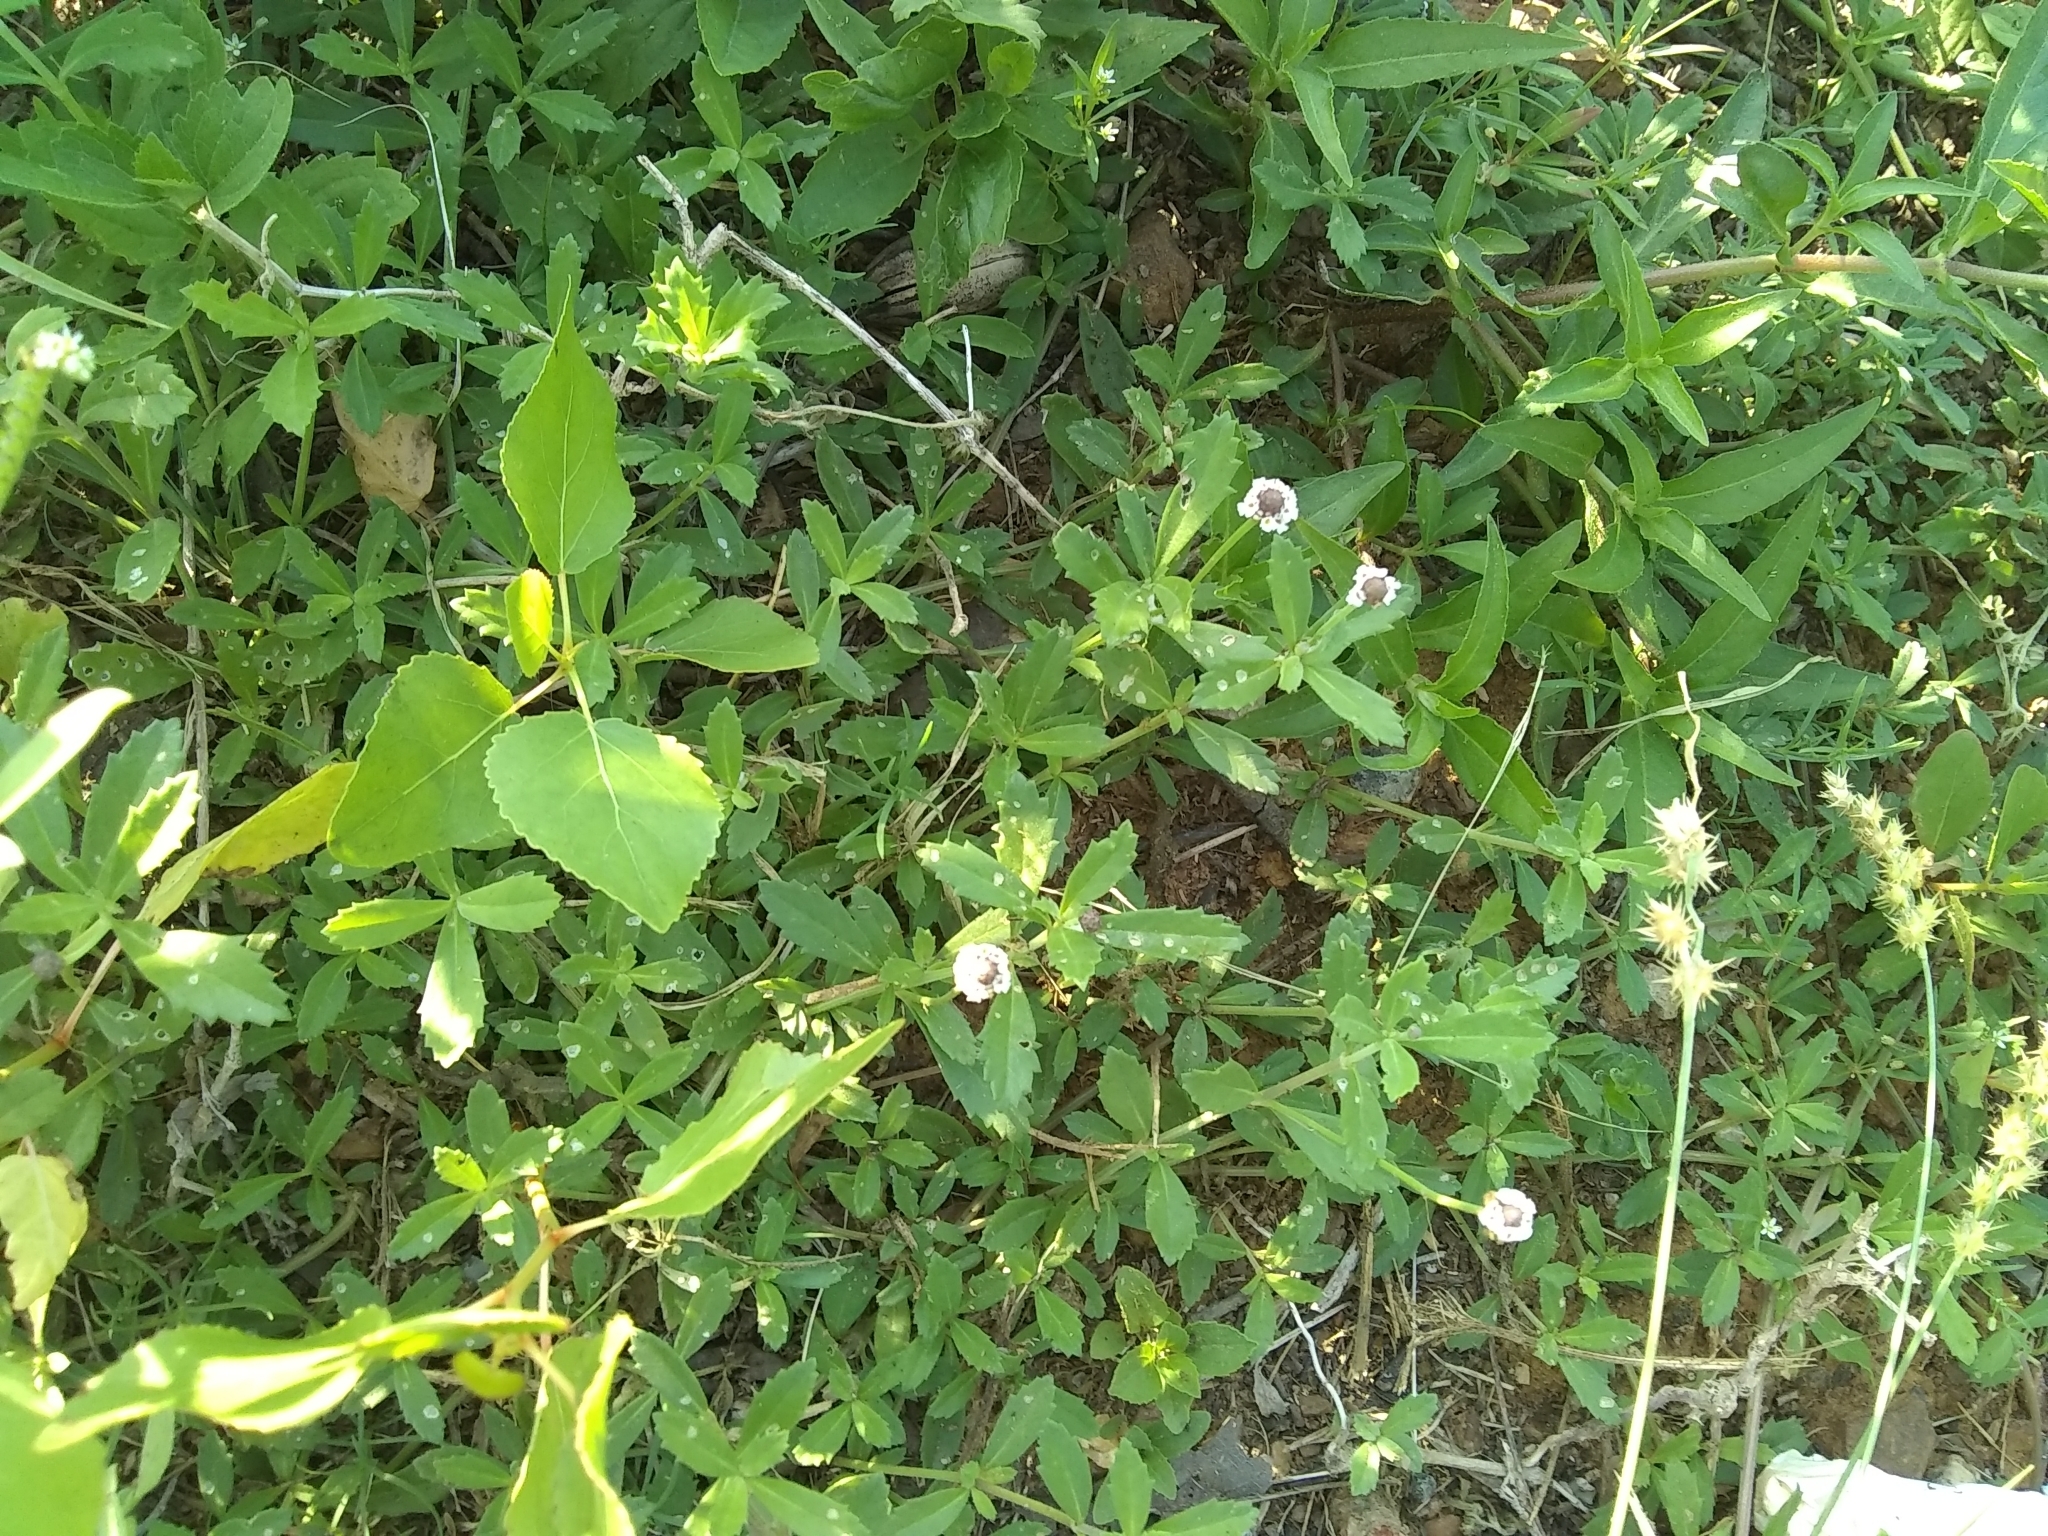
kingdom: Plantae
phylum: Tracheophyta
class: Magnoliopsida
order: Lamiales
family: Verbenaceae
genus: Phyla
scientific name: Phyla nodiflora
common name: Frogfruit
